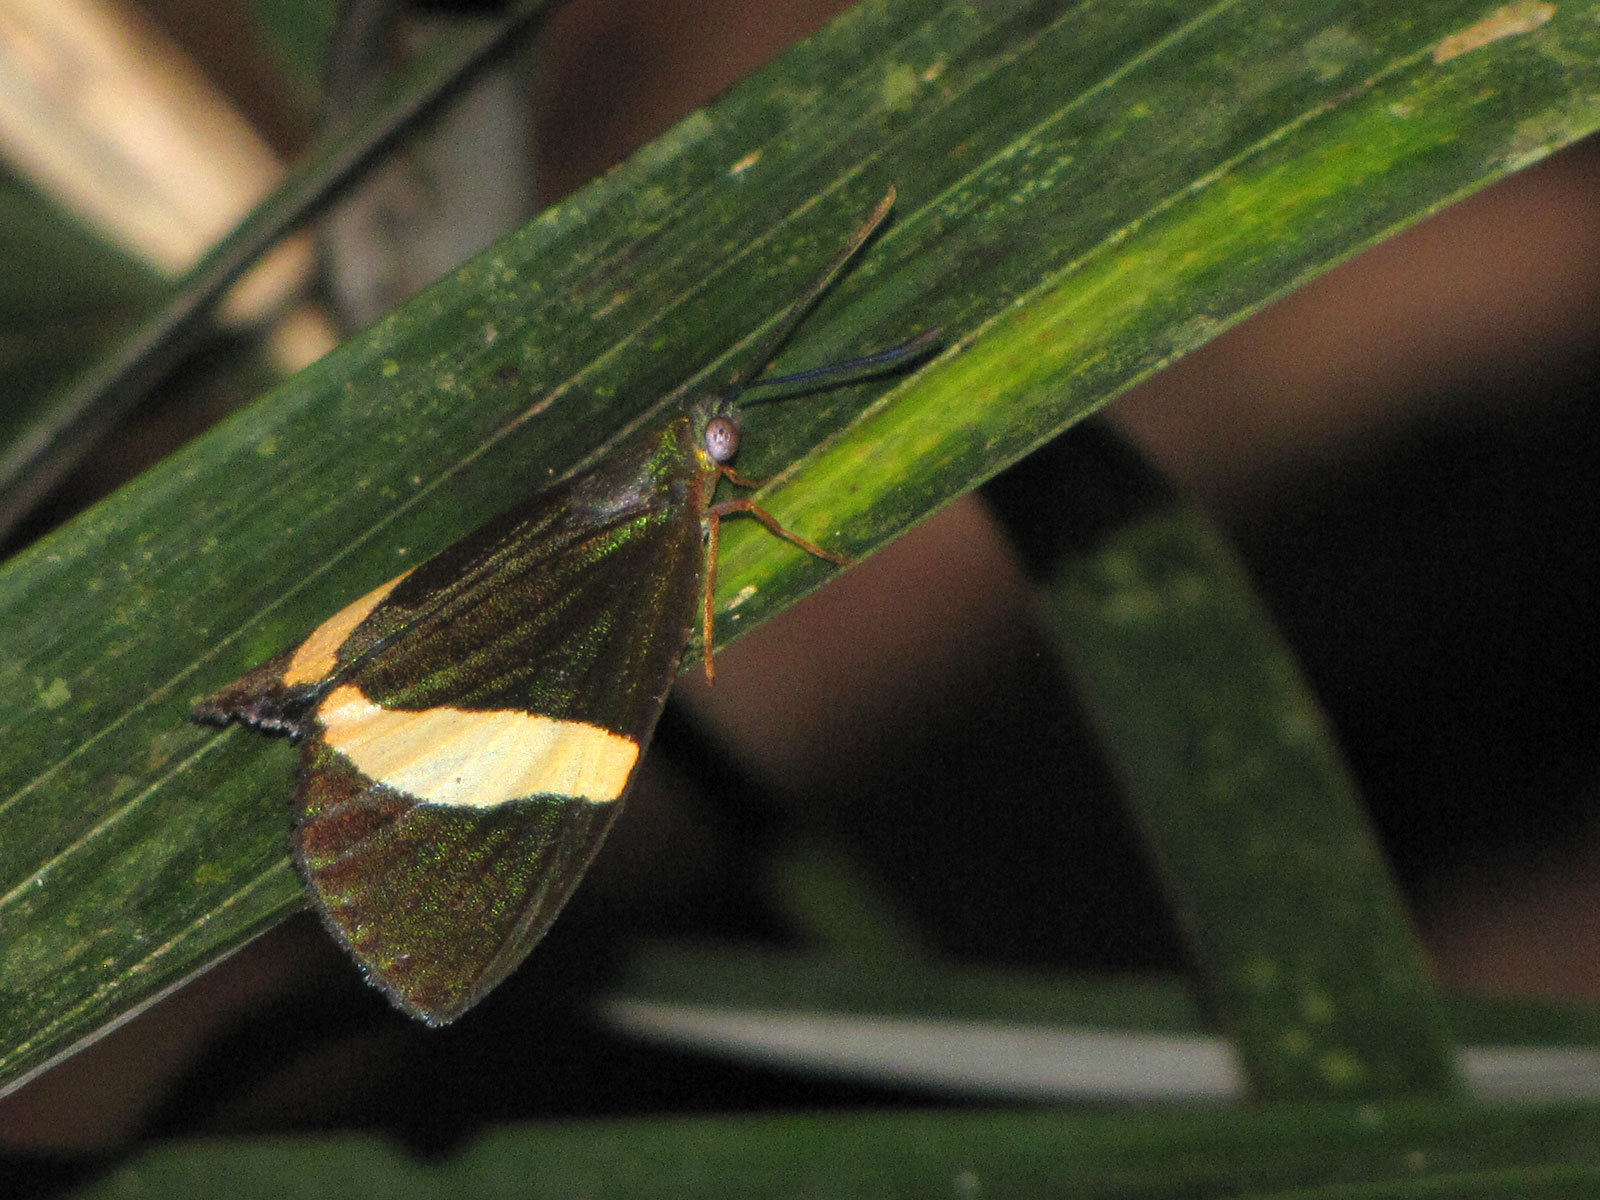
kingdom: Animalia
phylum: Arthropoda
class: Insecta
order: Lepidoptera
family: Castniidae
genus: Castnius
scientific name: Castnius pelasgus
